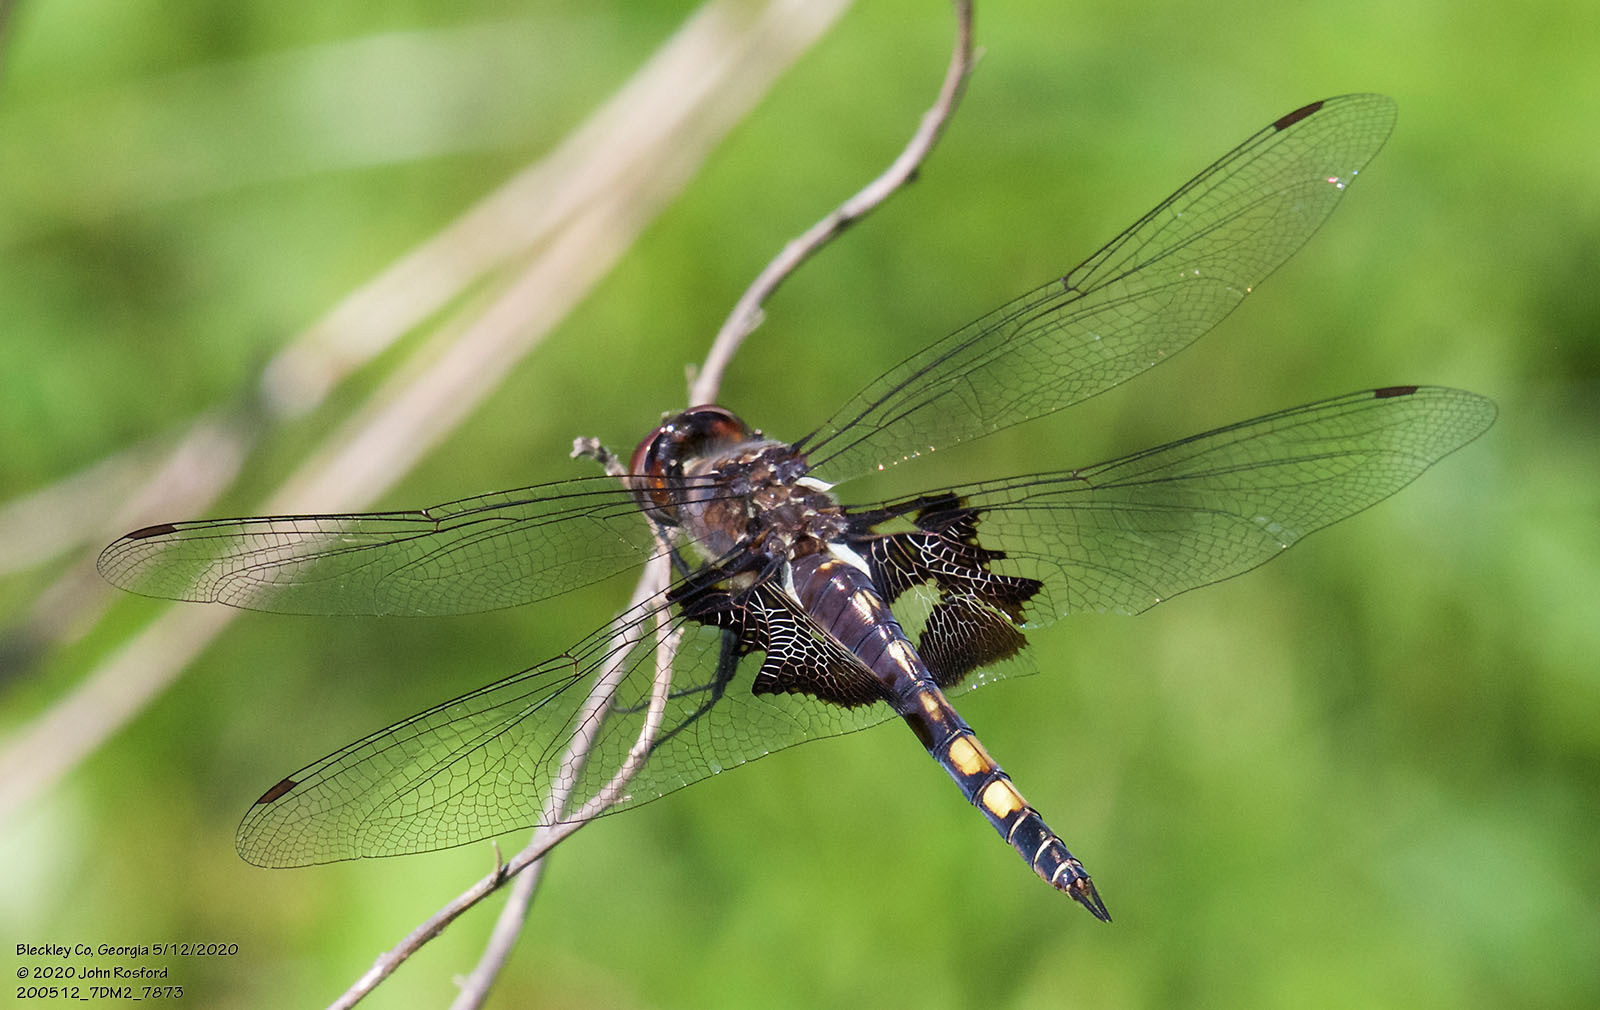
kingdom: Animalia
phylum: Arthropoda
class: Insecta
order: Odonata
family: Libellulidae
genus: Tramea
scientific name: Tramea lacerata
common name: Black saddlebags
